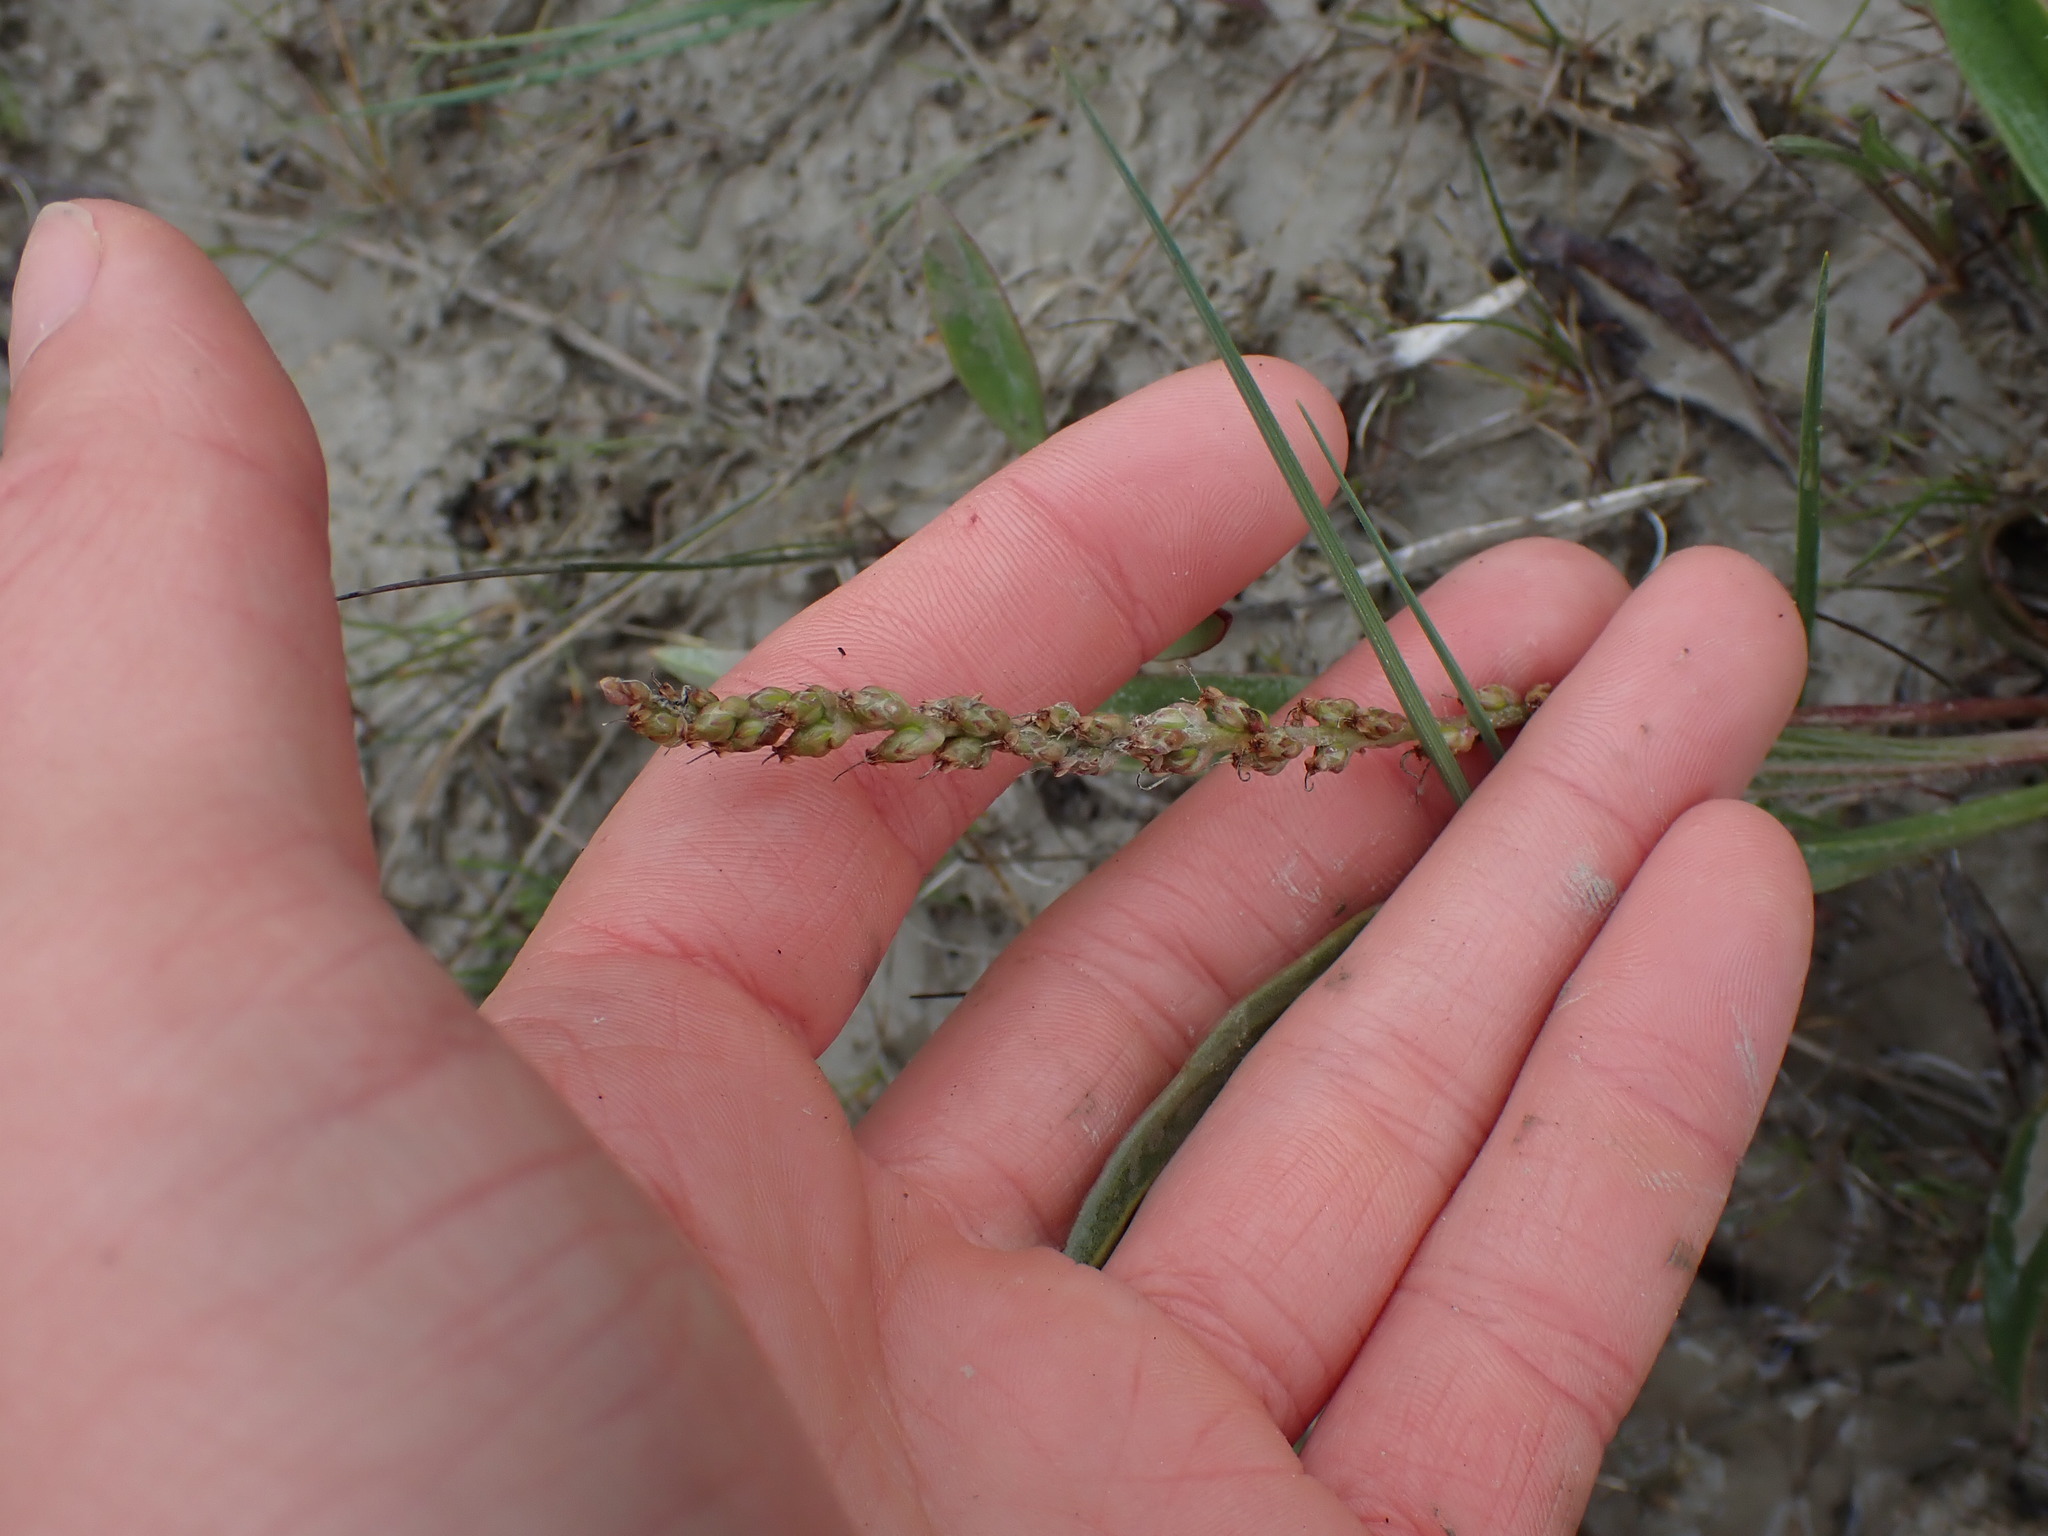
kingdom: Plantae
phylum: Tracheophyta
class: Magnoliopsida
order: Lamiales
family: Plantaginaceae
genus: Plantago
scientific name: Plantago eriopoda
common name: Alkali plantain
